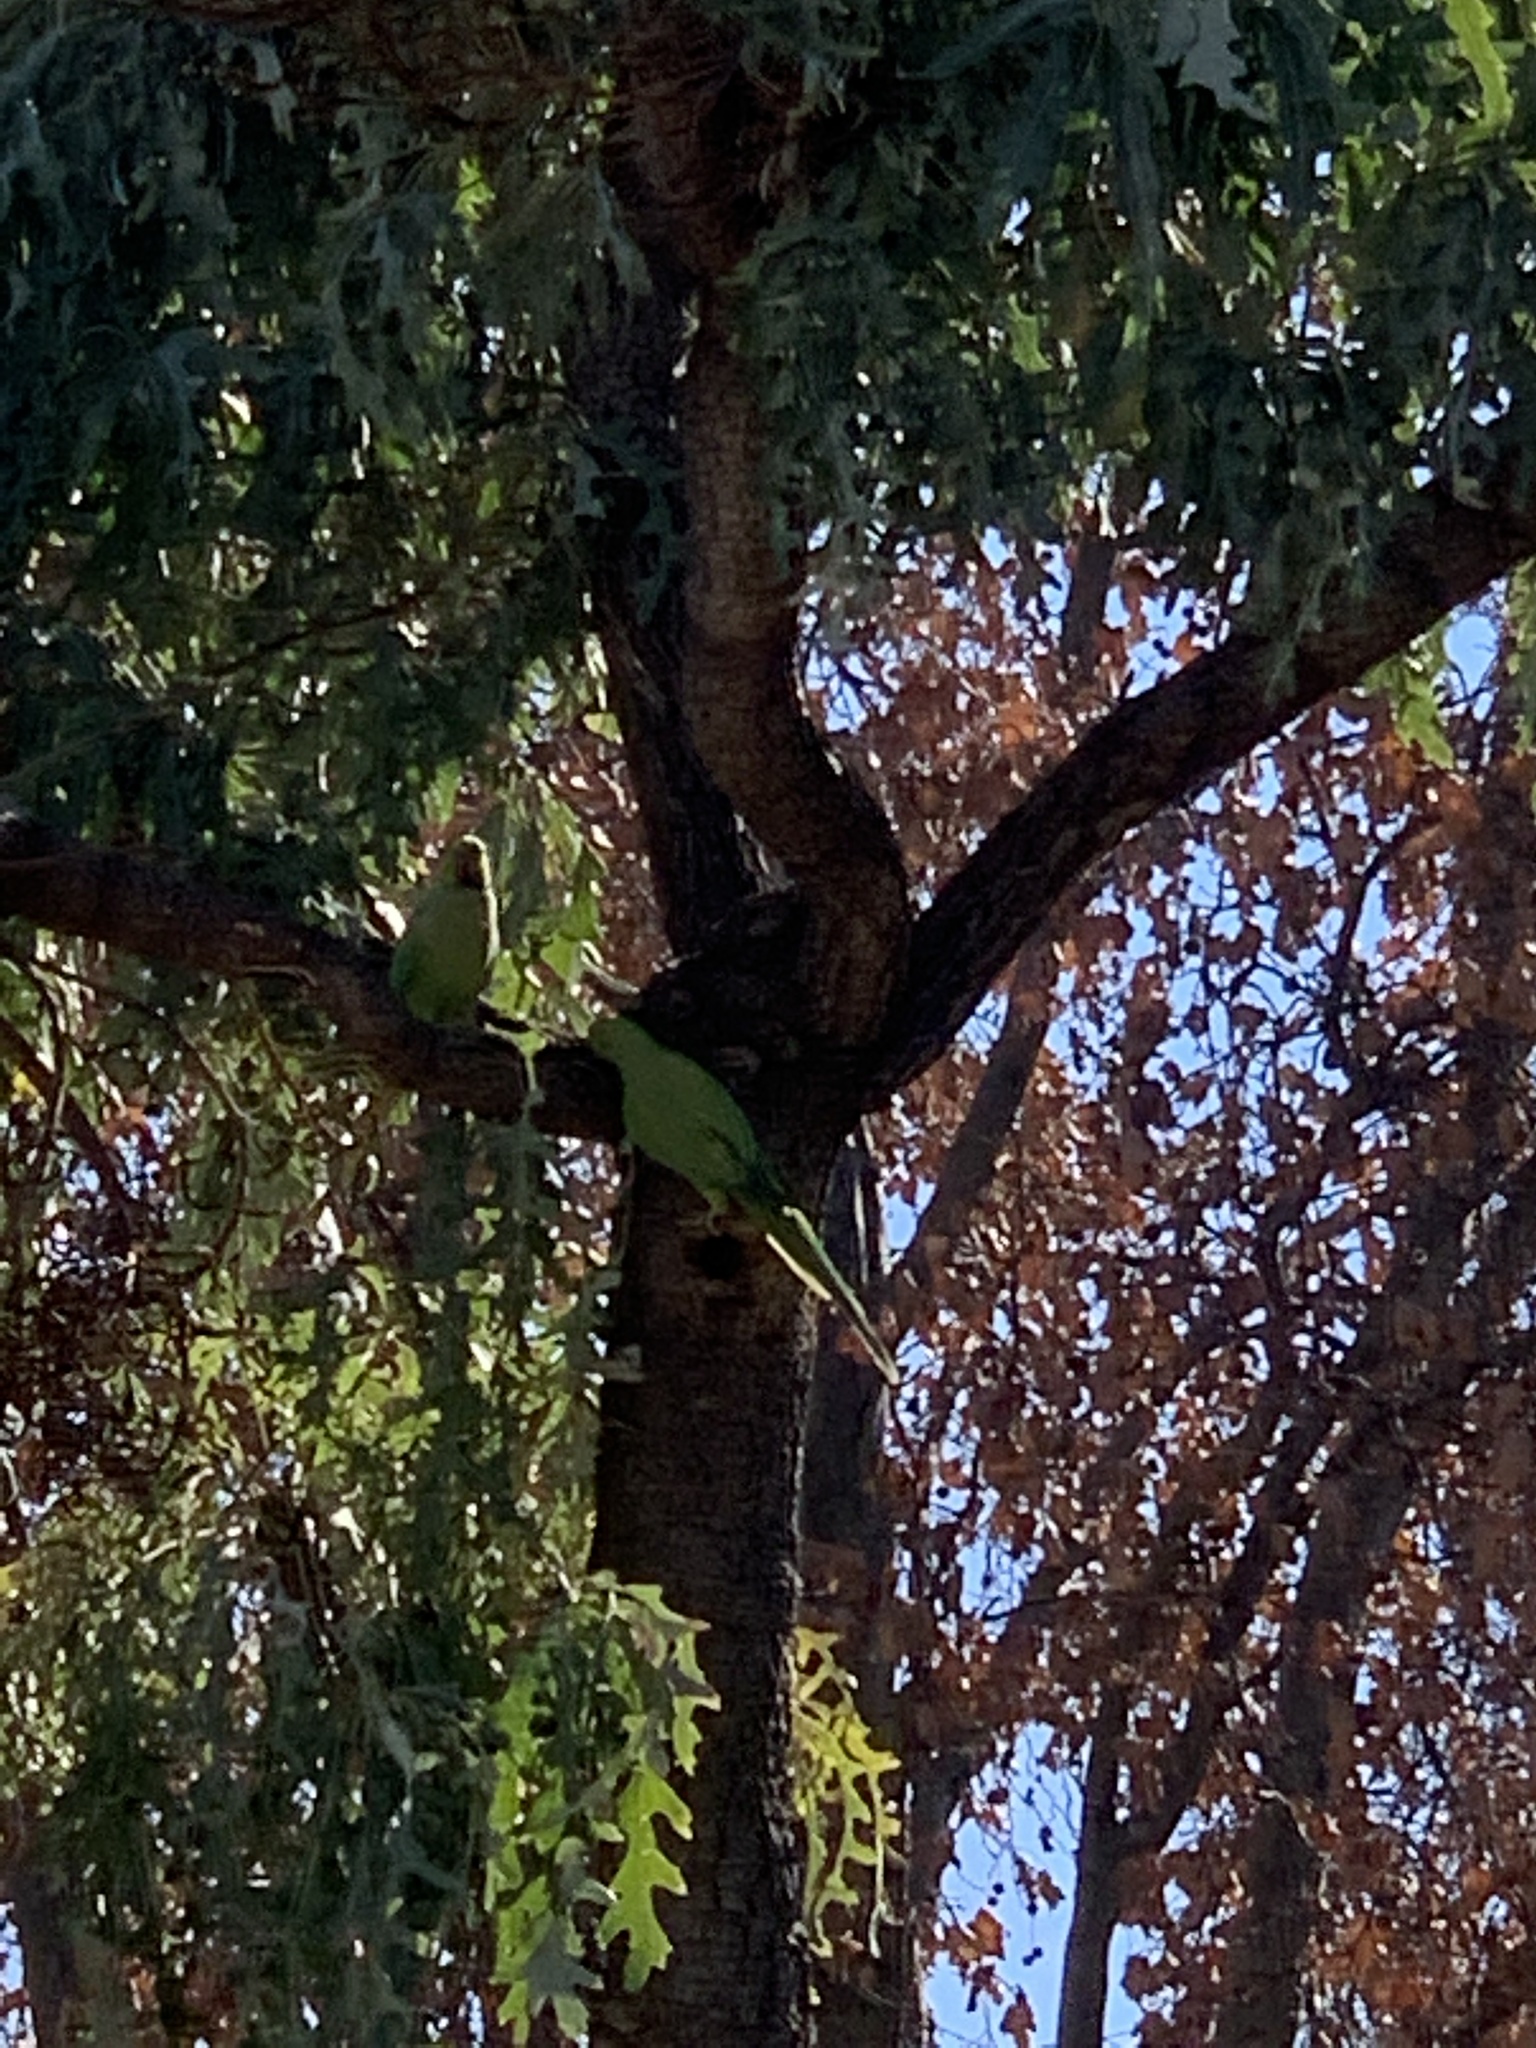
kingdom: Animalia
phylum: Chordata
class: Aves
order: Psittaciformes
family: Psittacidae
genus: Psittacula
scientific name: Psittacula krameri
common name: Rose-ringed parakeet
